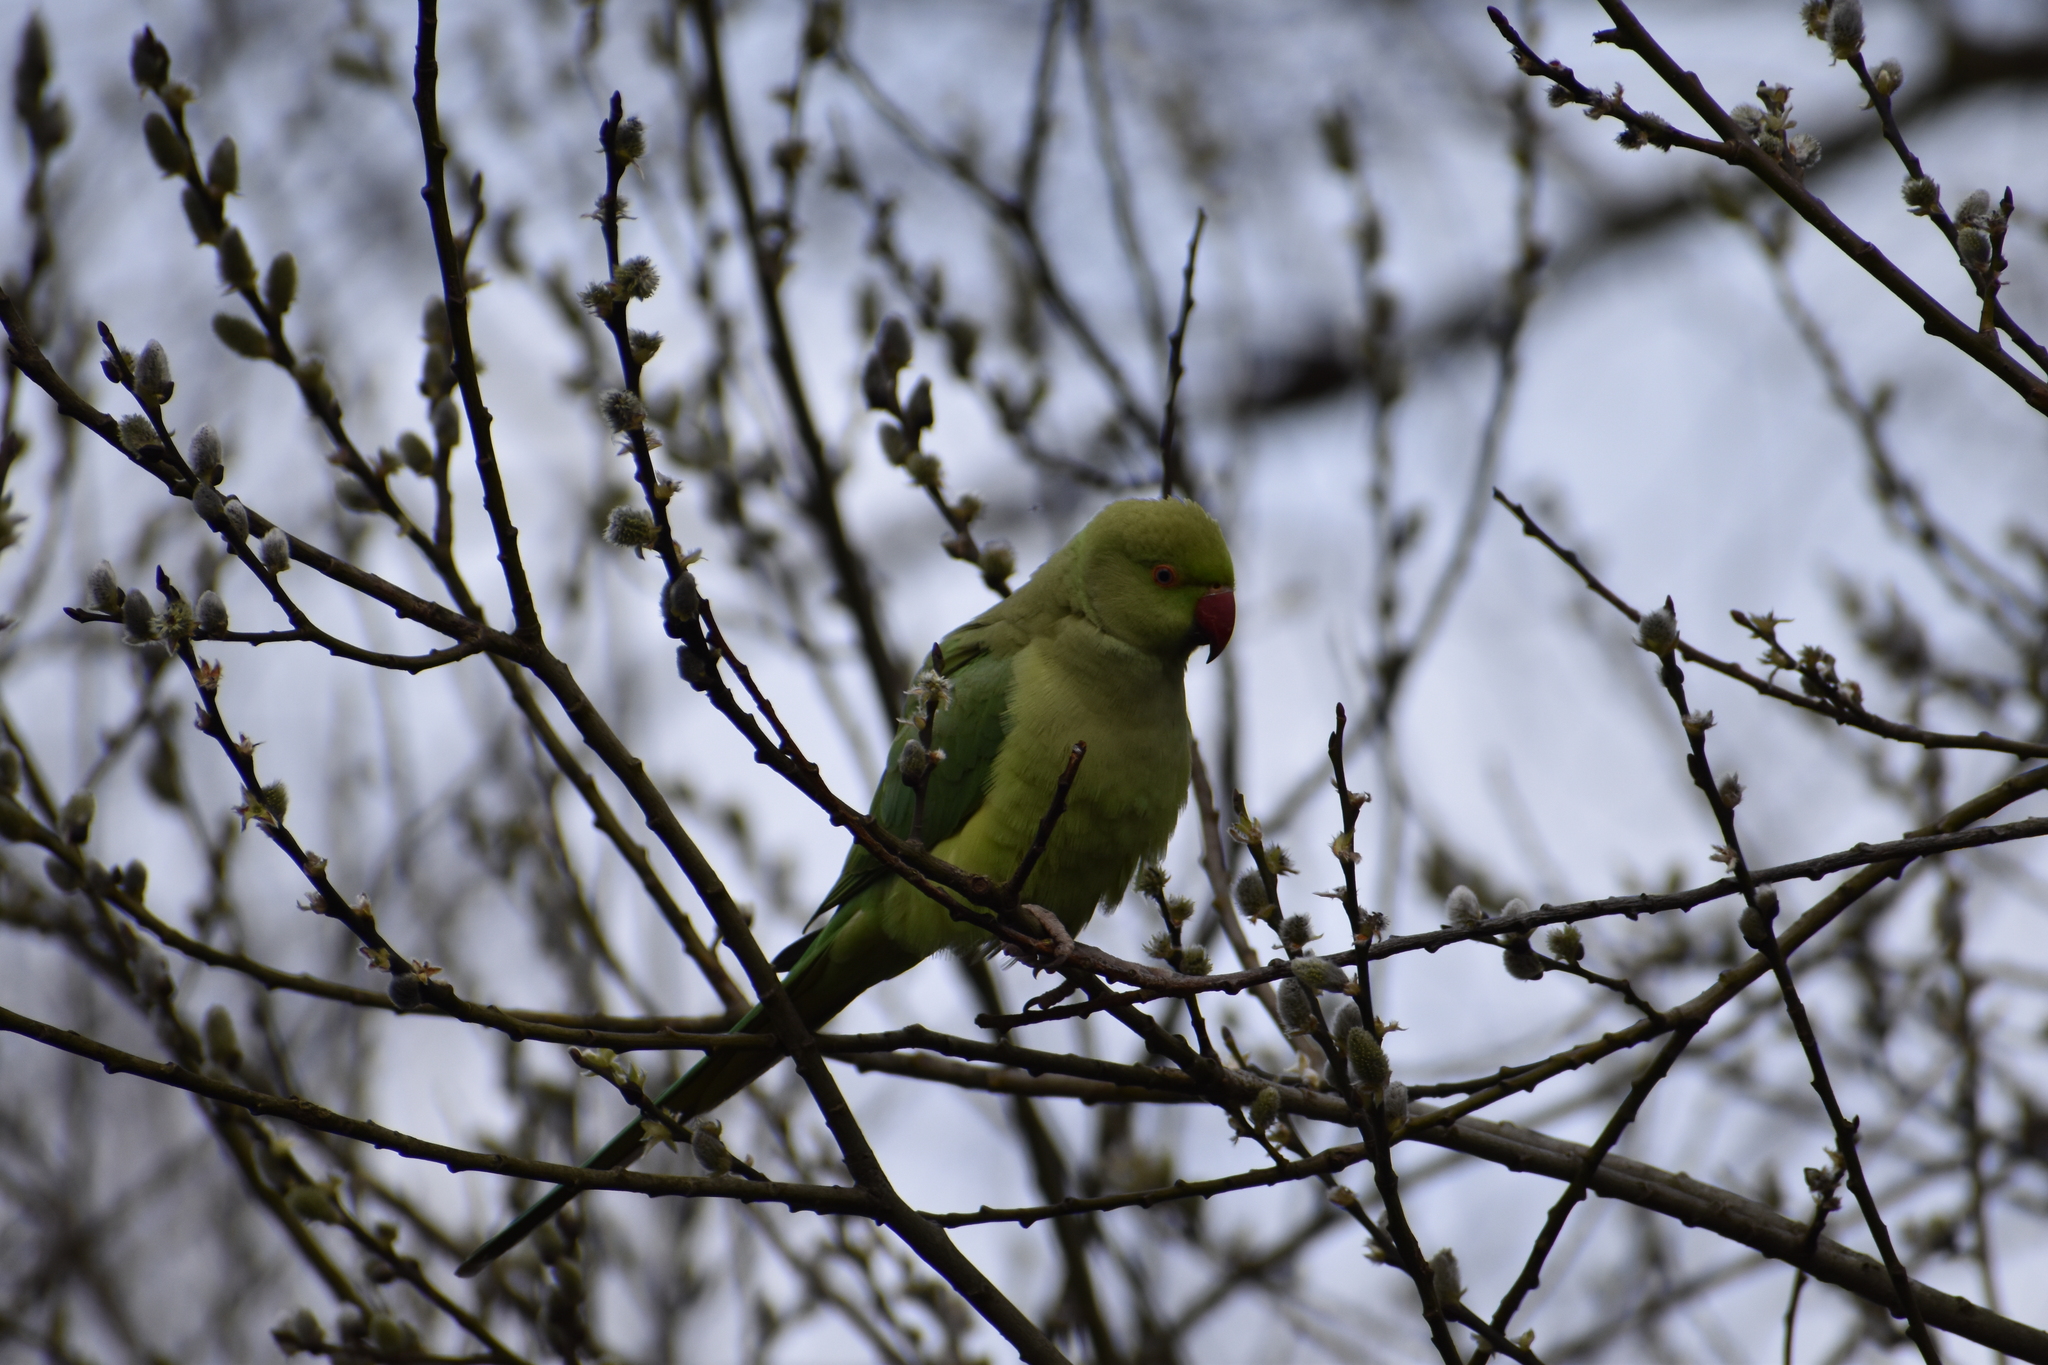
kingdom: Animalia
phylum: Chordata
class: Aves
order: Psittaciformes
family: Psittacidae
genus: Psittacula
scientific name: Psittacula krameri
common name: Rose-ringed parakeet
